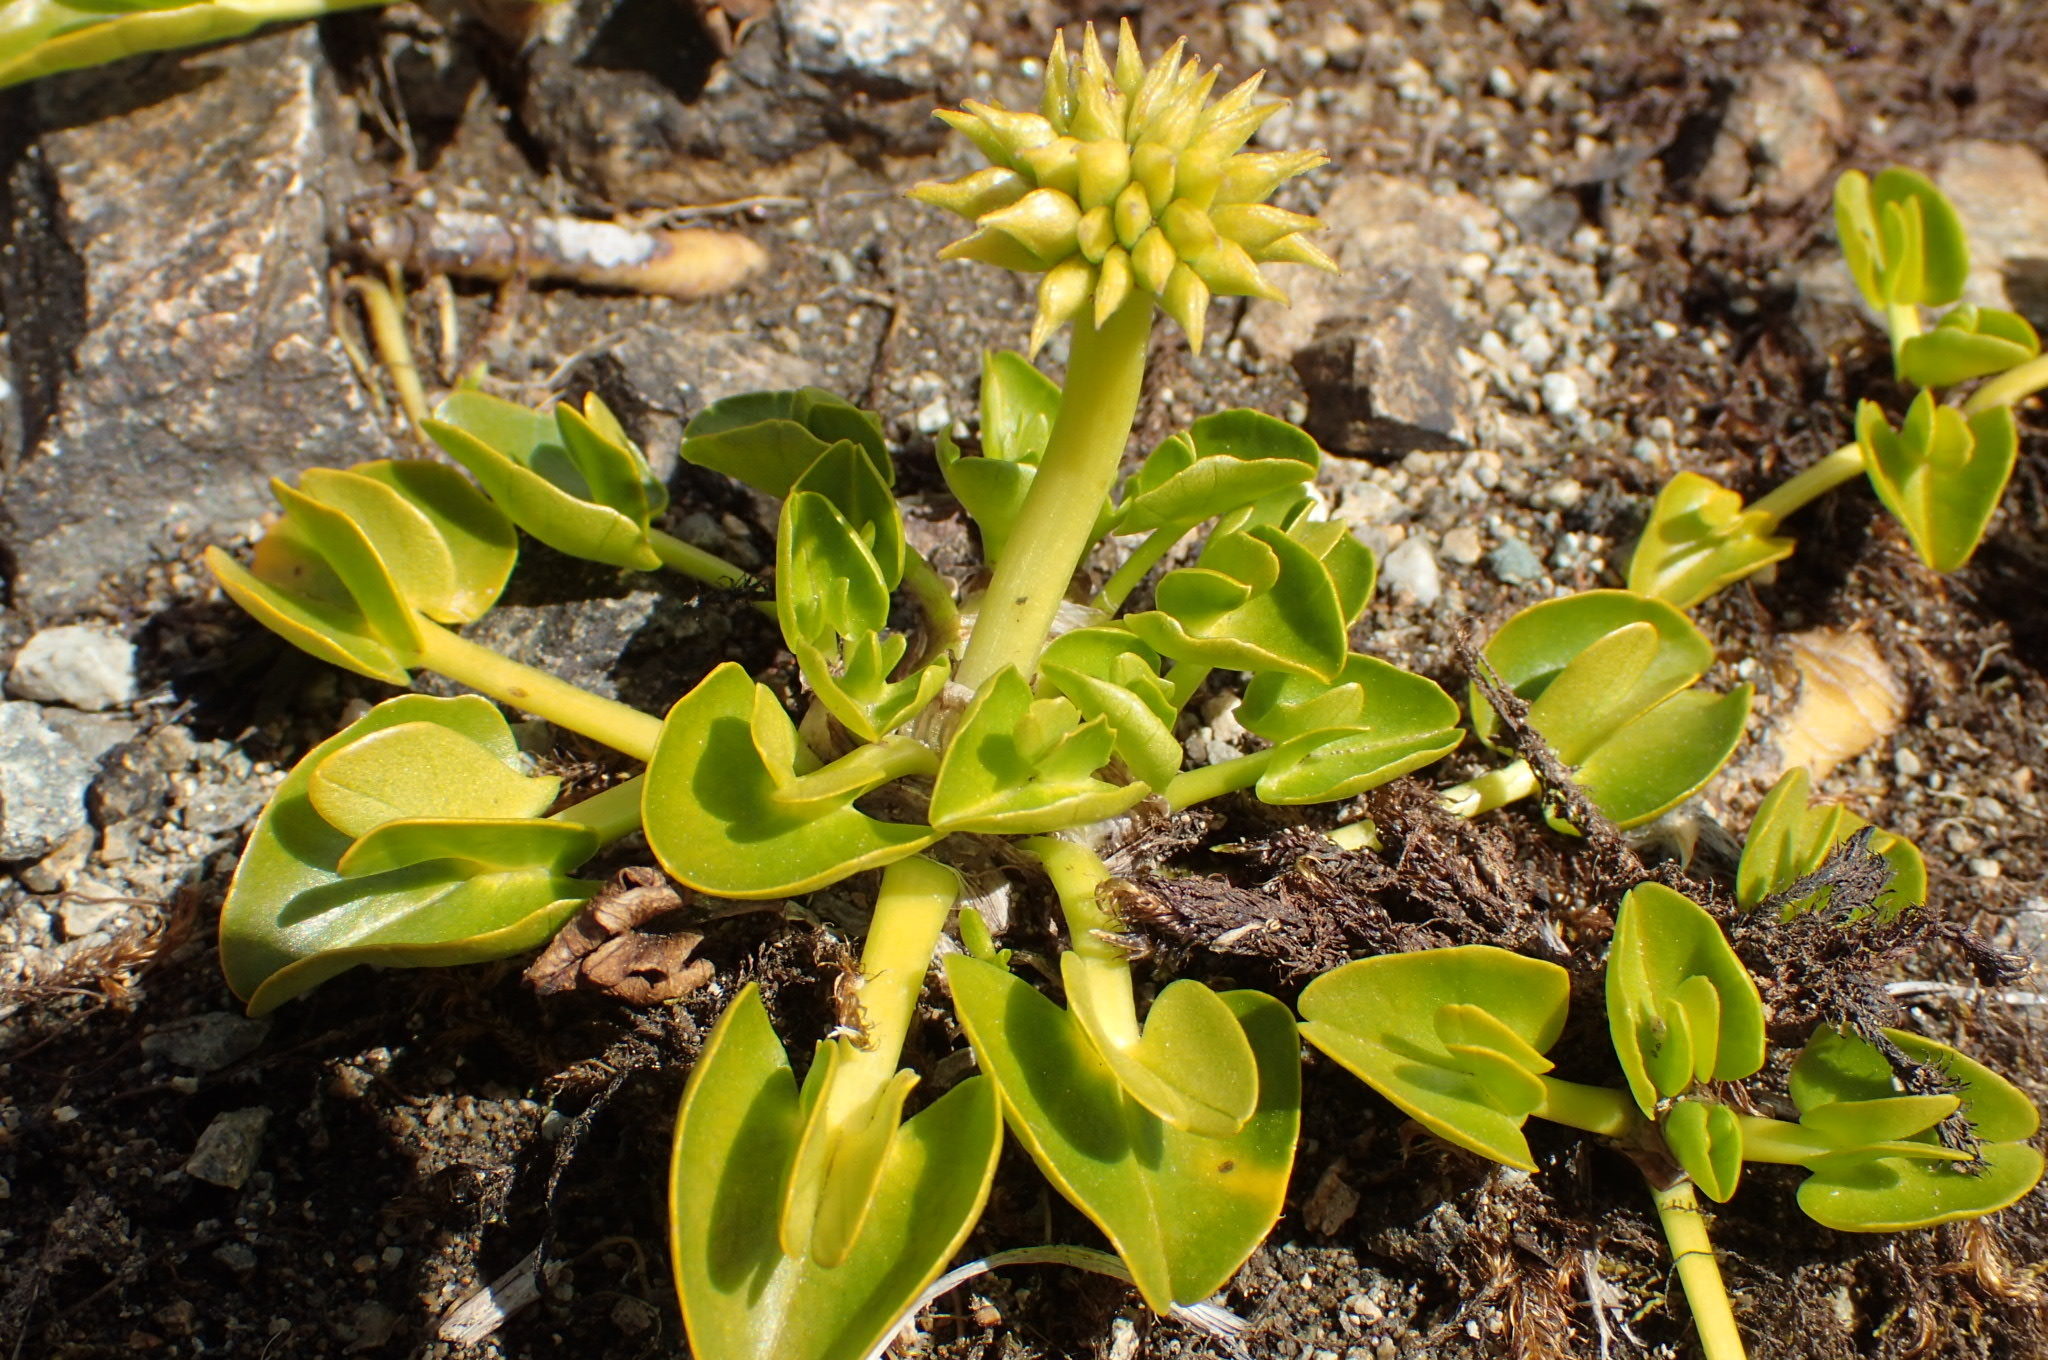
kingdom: Plantae
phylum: Tracheophyta
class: Magnoliopsida
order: Ranunculales
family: Ranunculaceae
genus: Caltha
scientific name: Caltha sagittata
